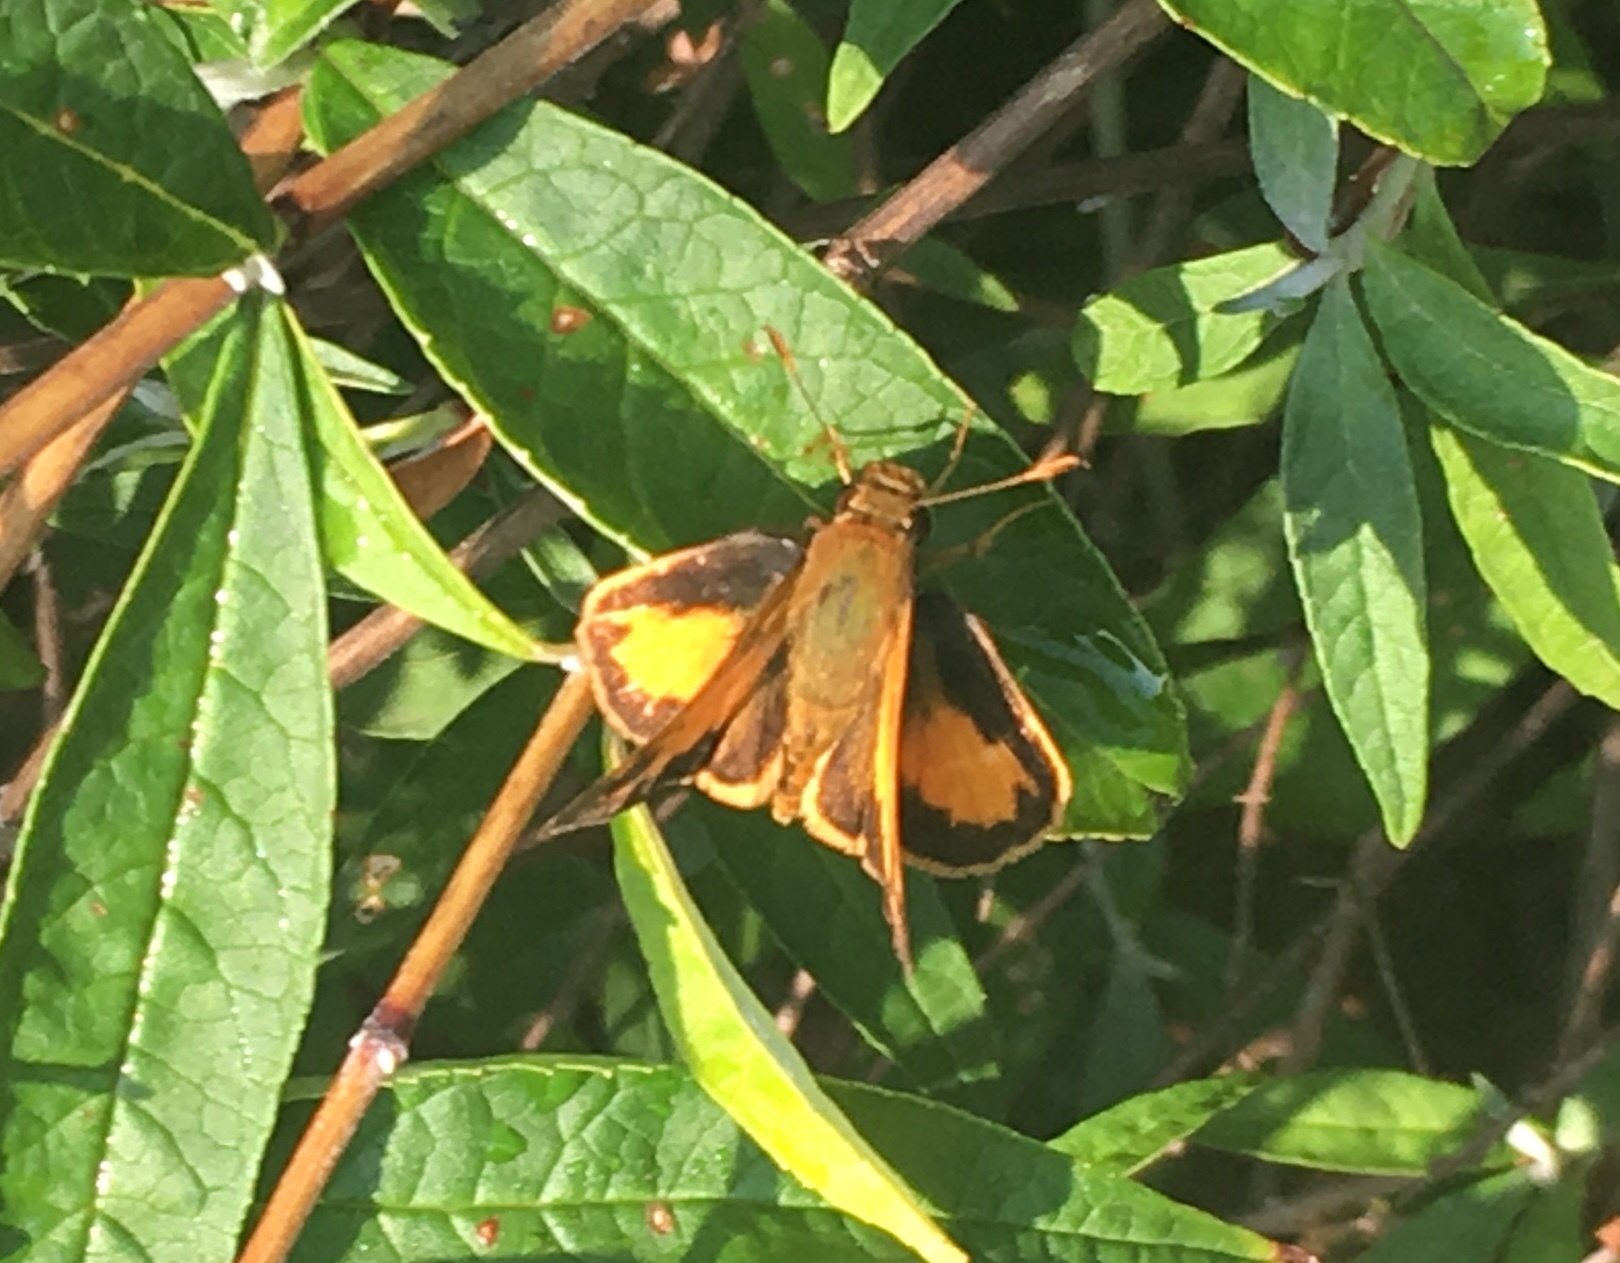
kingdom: Animalia
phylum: Arthropoda
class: Insecta
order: Lepidoptera
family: Hesperiidae
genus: Lon
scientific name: Lon zabulon
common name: Zabulon skipper
